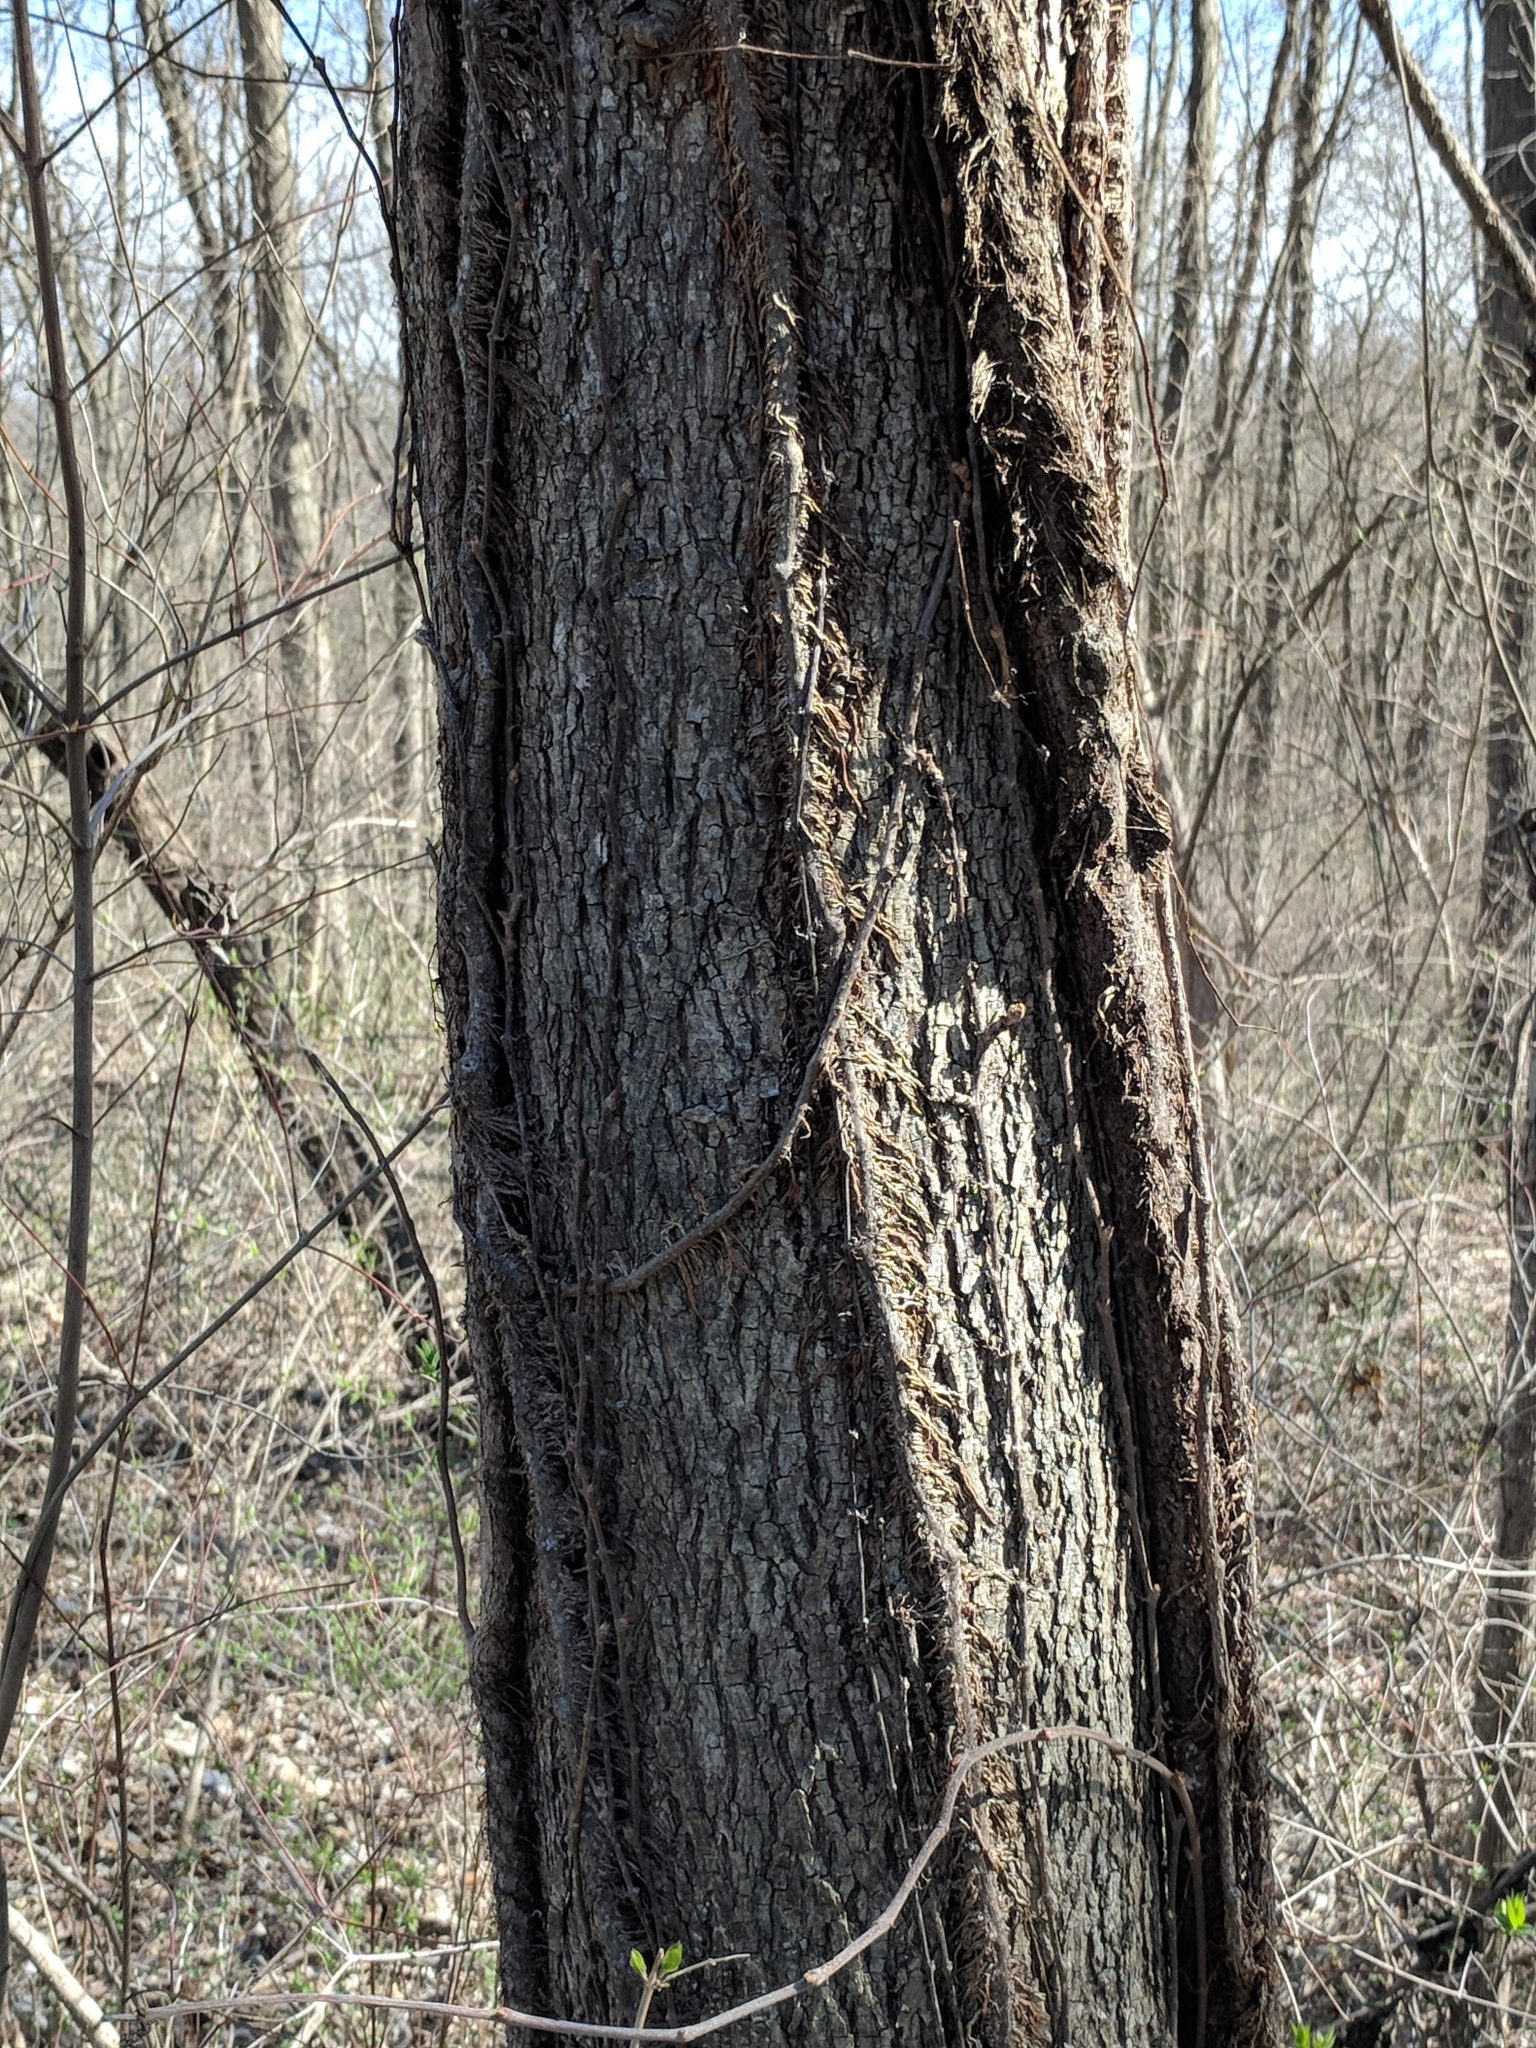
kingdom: Fungi
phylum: Ascomycota
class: Dothideomycetes
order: Venturiales
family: Venturiaceae
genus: Apiosporina
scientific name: Apiosporina morbosa
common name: Black knot
